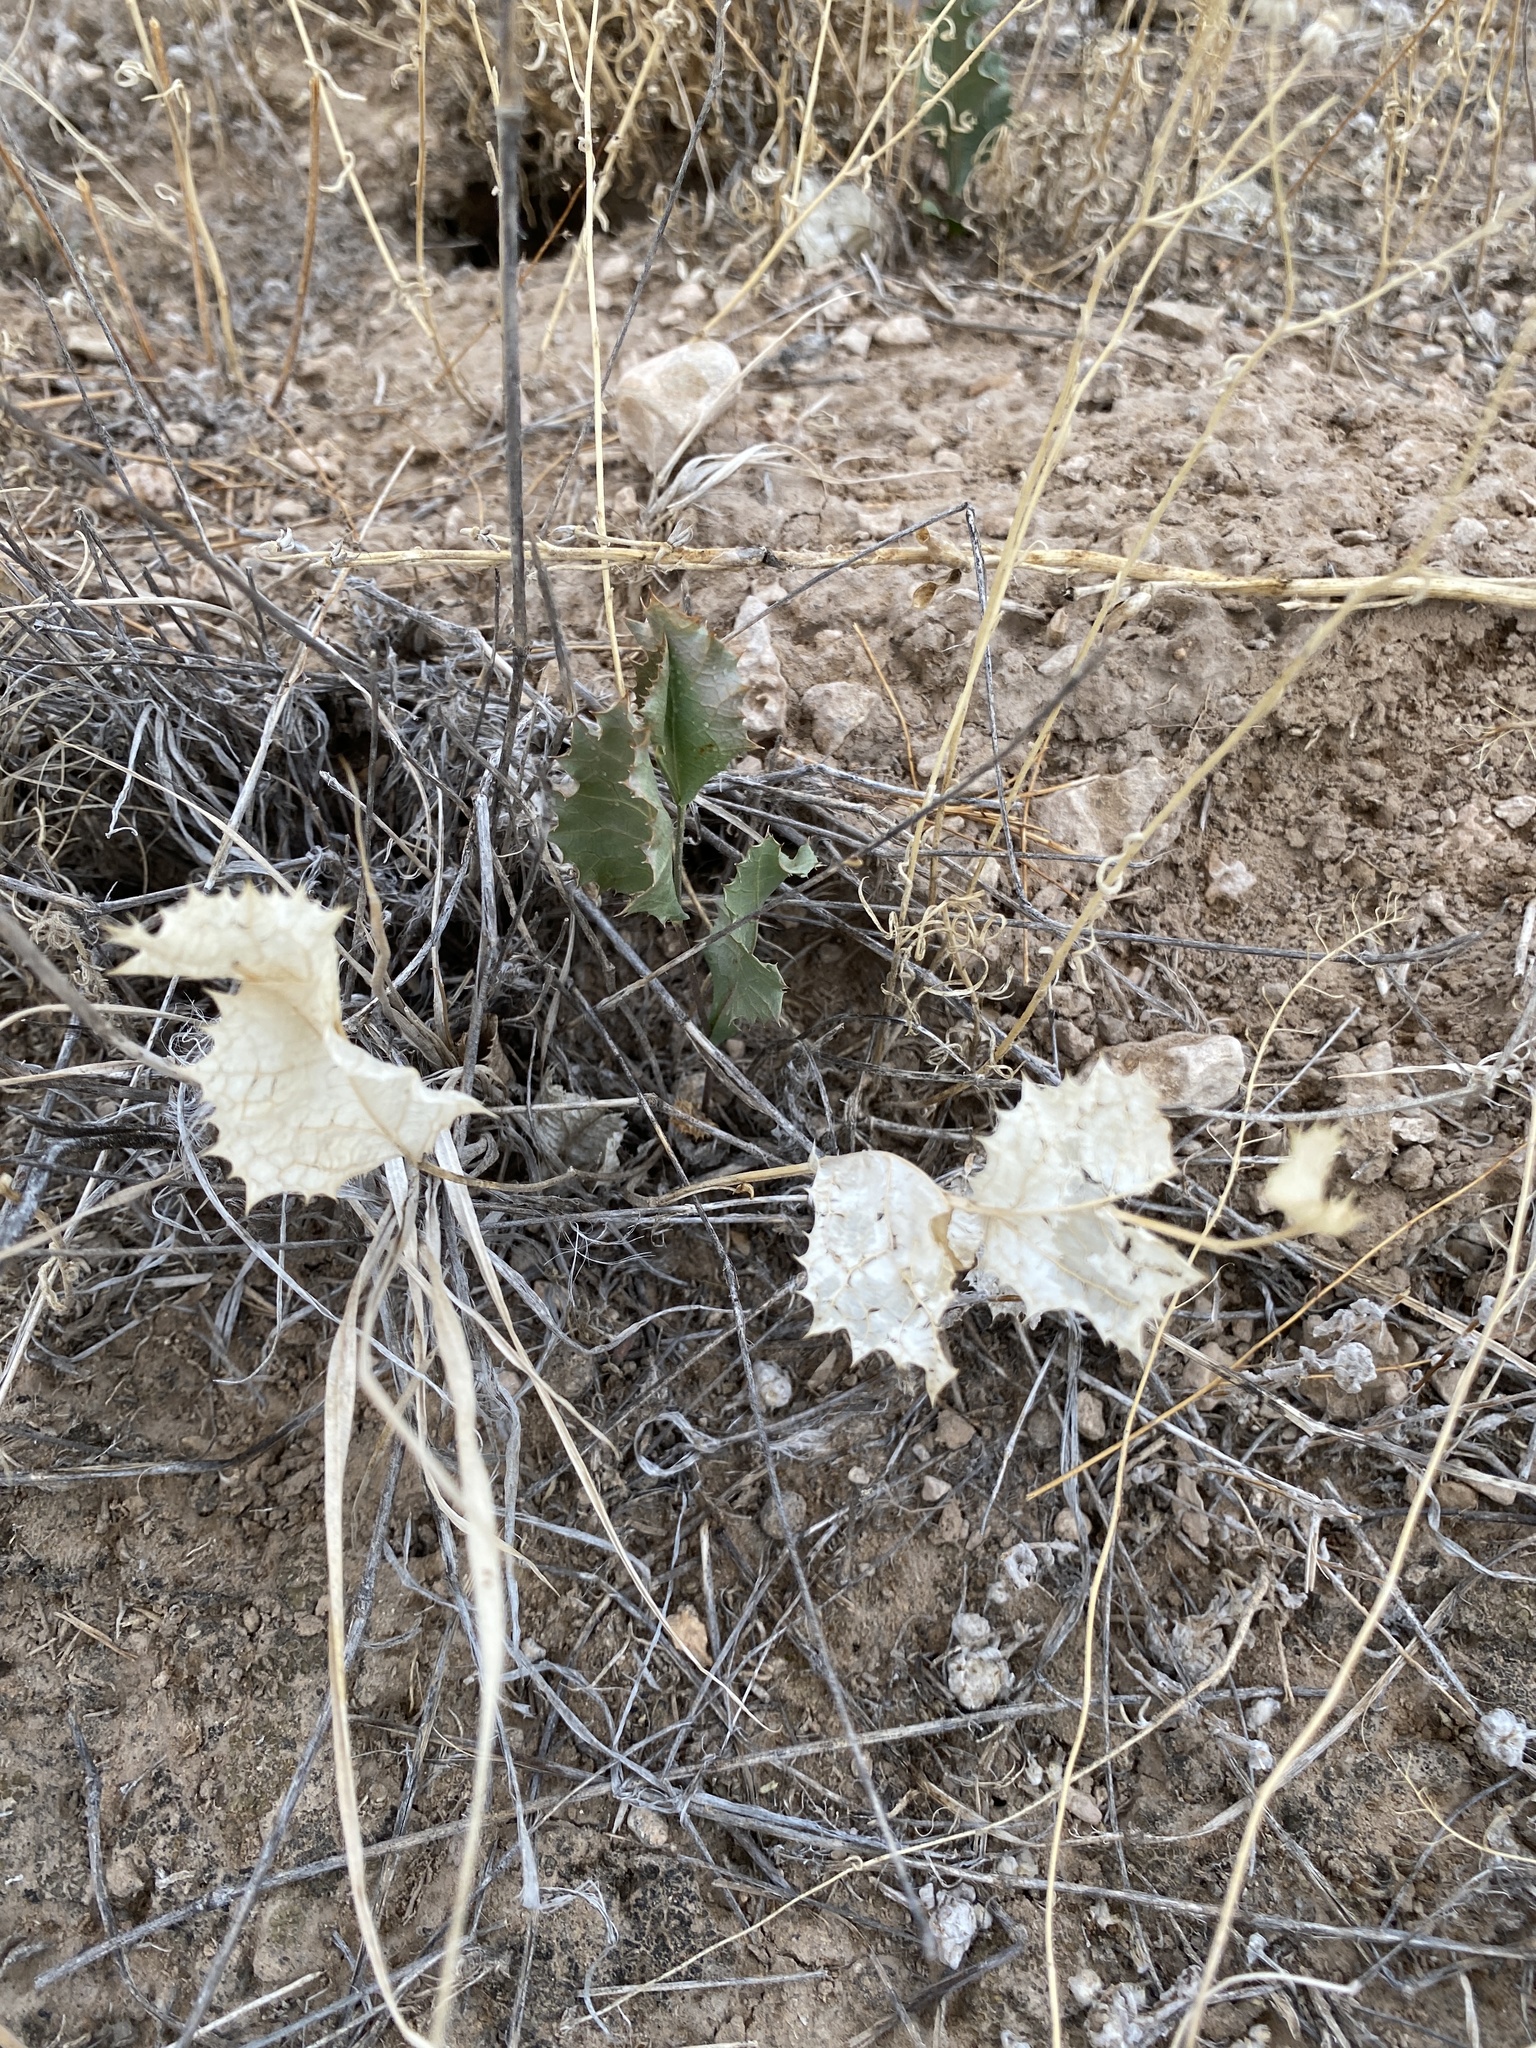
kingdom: Plantae
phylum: Tracheophyta
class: Magnoliopsida
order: Asterales
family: Asteraceae
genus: Acourtia
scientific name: Acourtia nana
